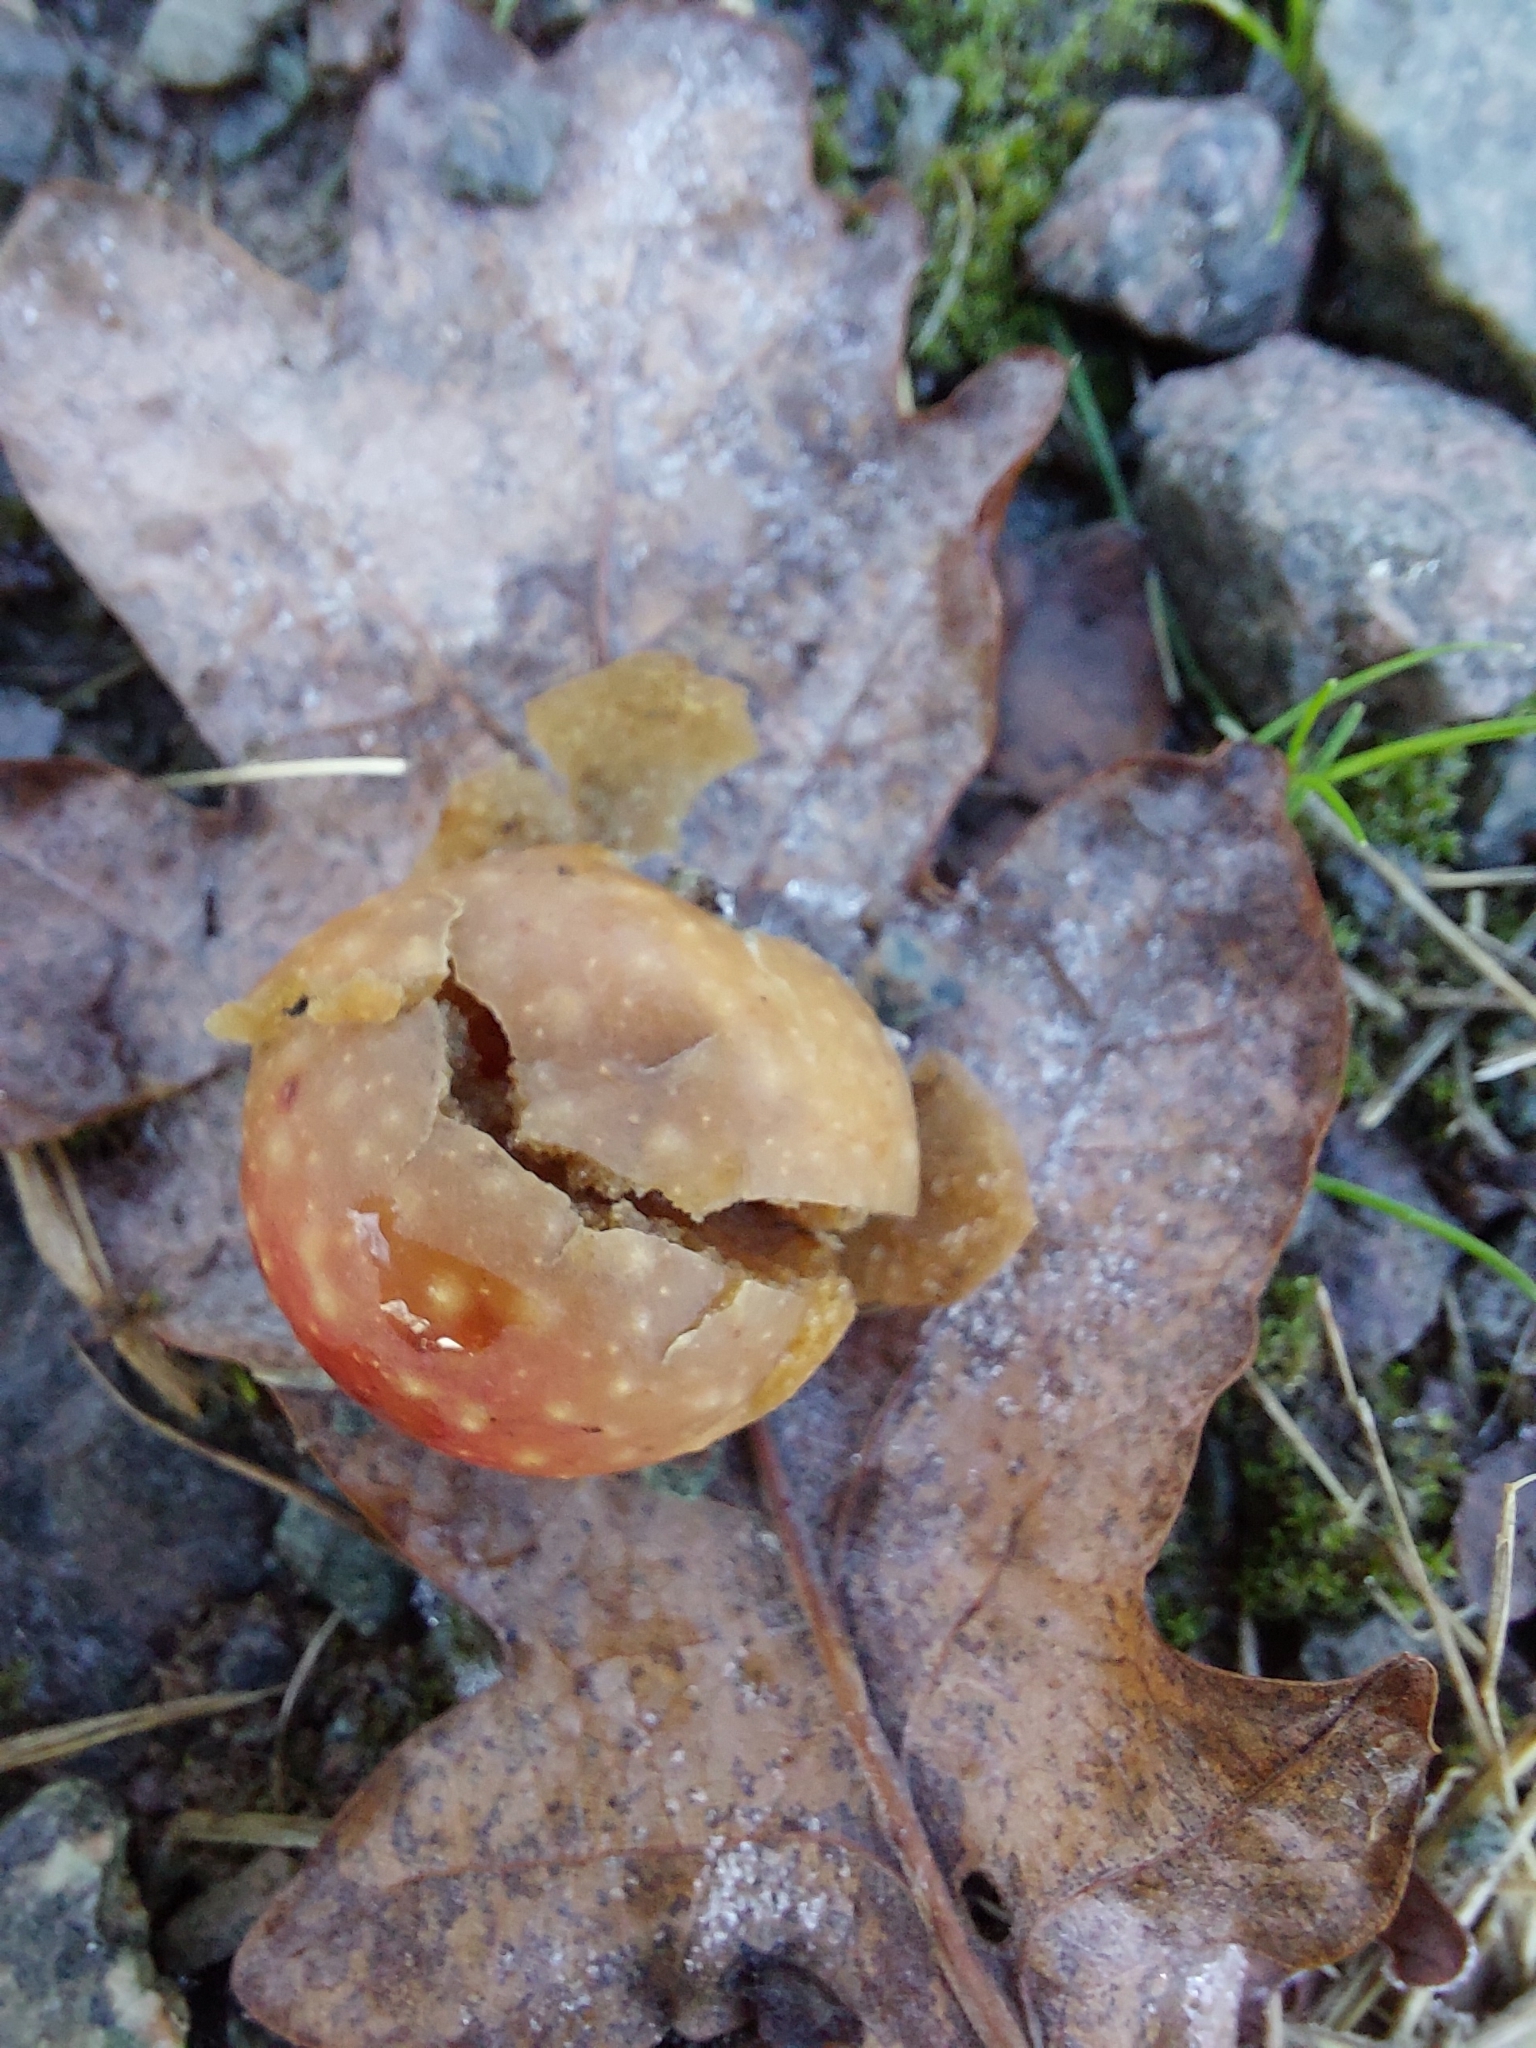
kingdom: Animalia
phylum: Arthropoda
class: Insecta
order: Hymenoptera
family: Cynipidae
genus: Cynips
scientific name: Cynips quercusfolii
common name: Cherry gall
